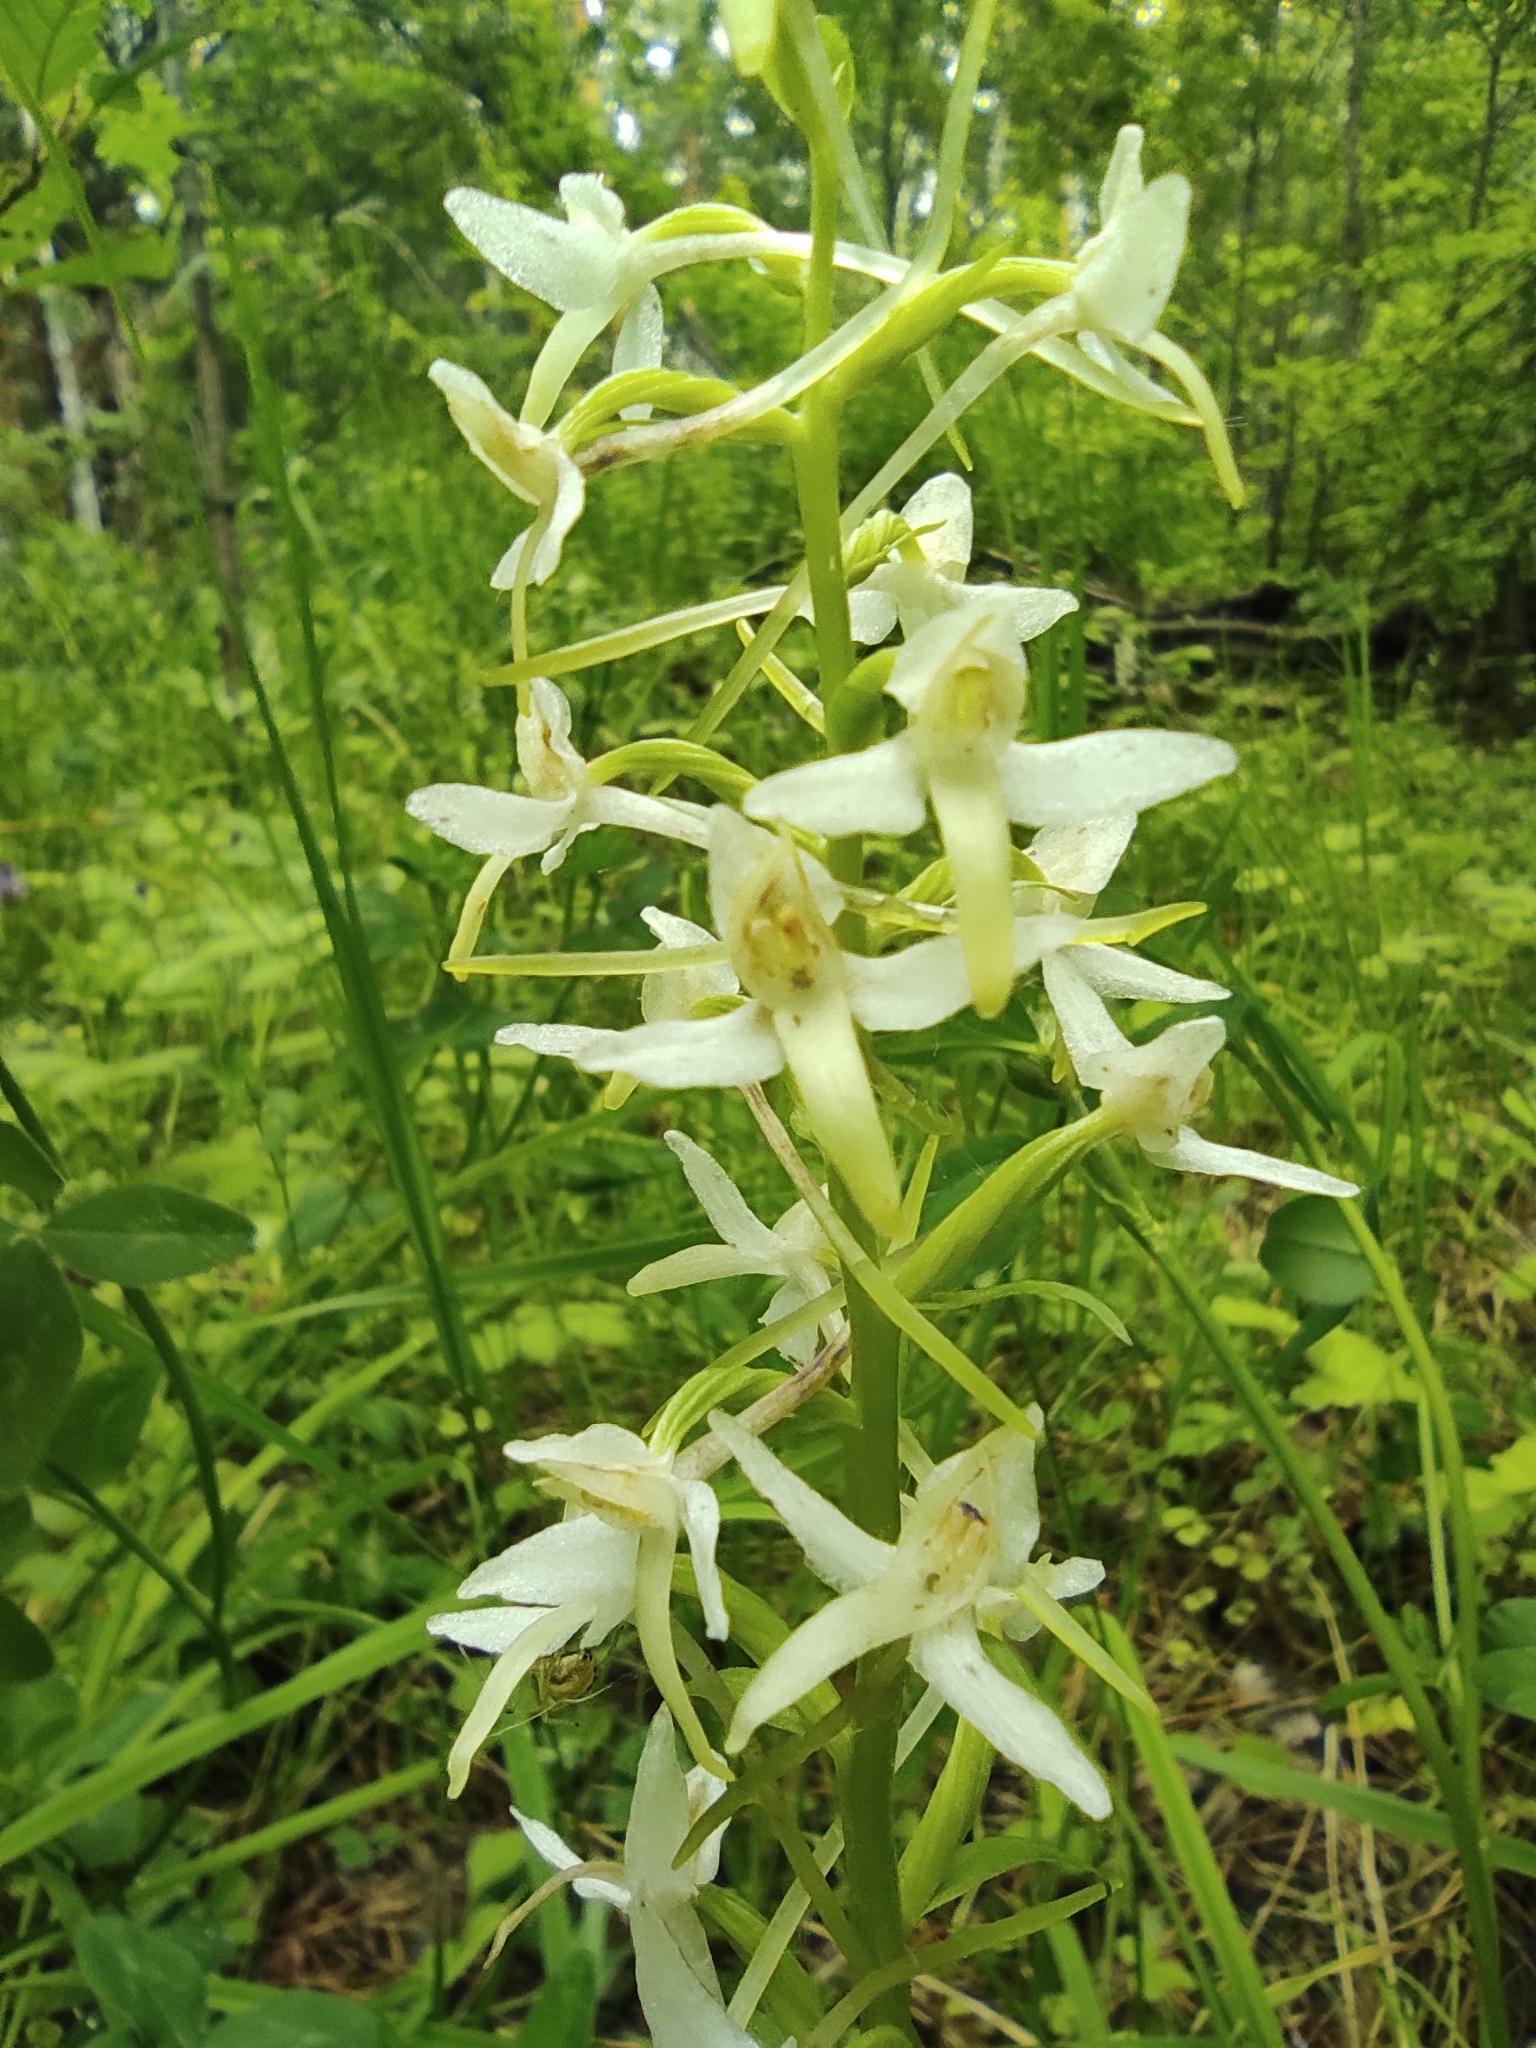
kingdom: Plantae
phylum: Tracheophyta
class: Liliopsida
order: Asparagales
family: Orchidaceae
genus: Platanthera
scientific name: Platanthera bifolia
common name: Lesser butterfly-orchid
